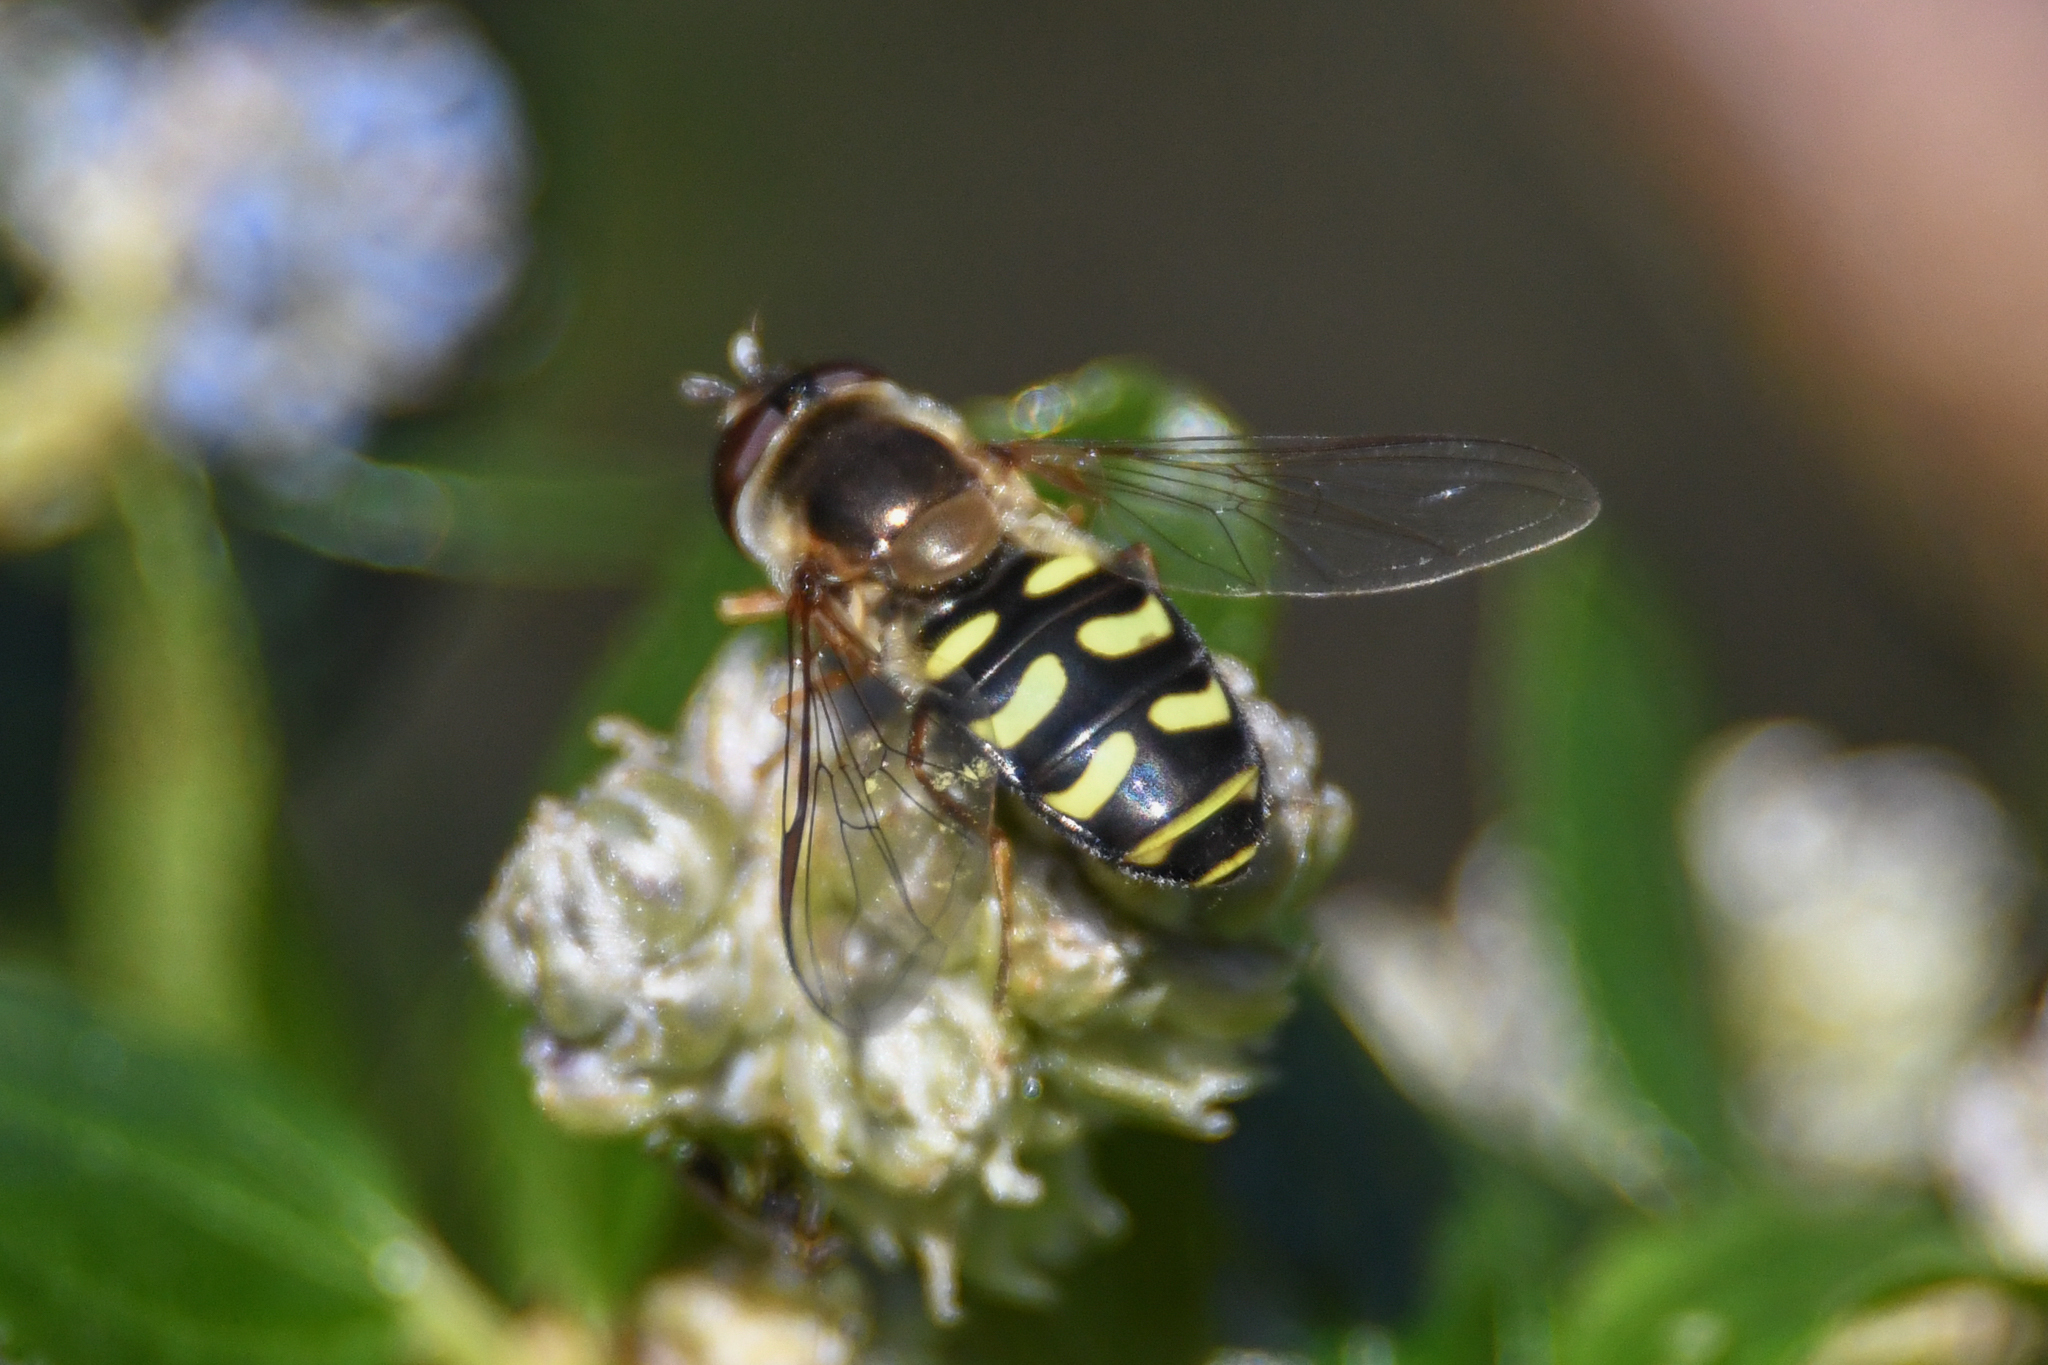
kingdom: Animalia
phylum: Arthropoda
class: Insecta
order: Diptera
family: Syrphidae
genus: Lapposyrphus
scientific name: Lapposyrphus lapponicus
